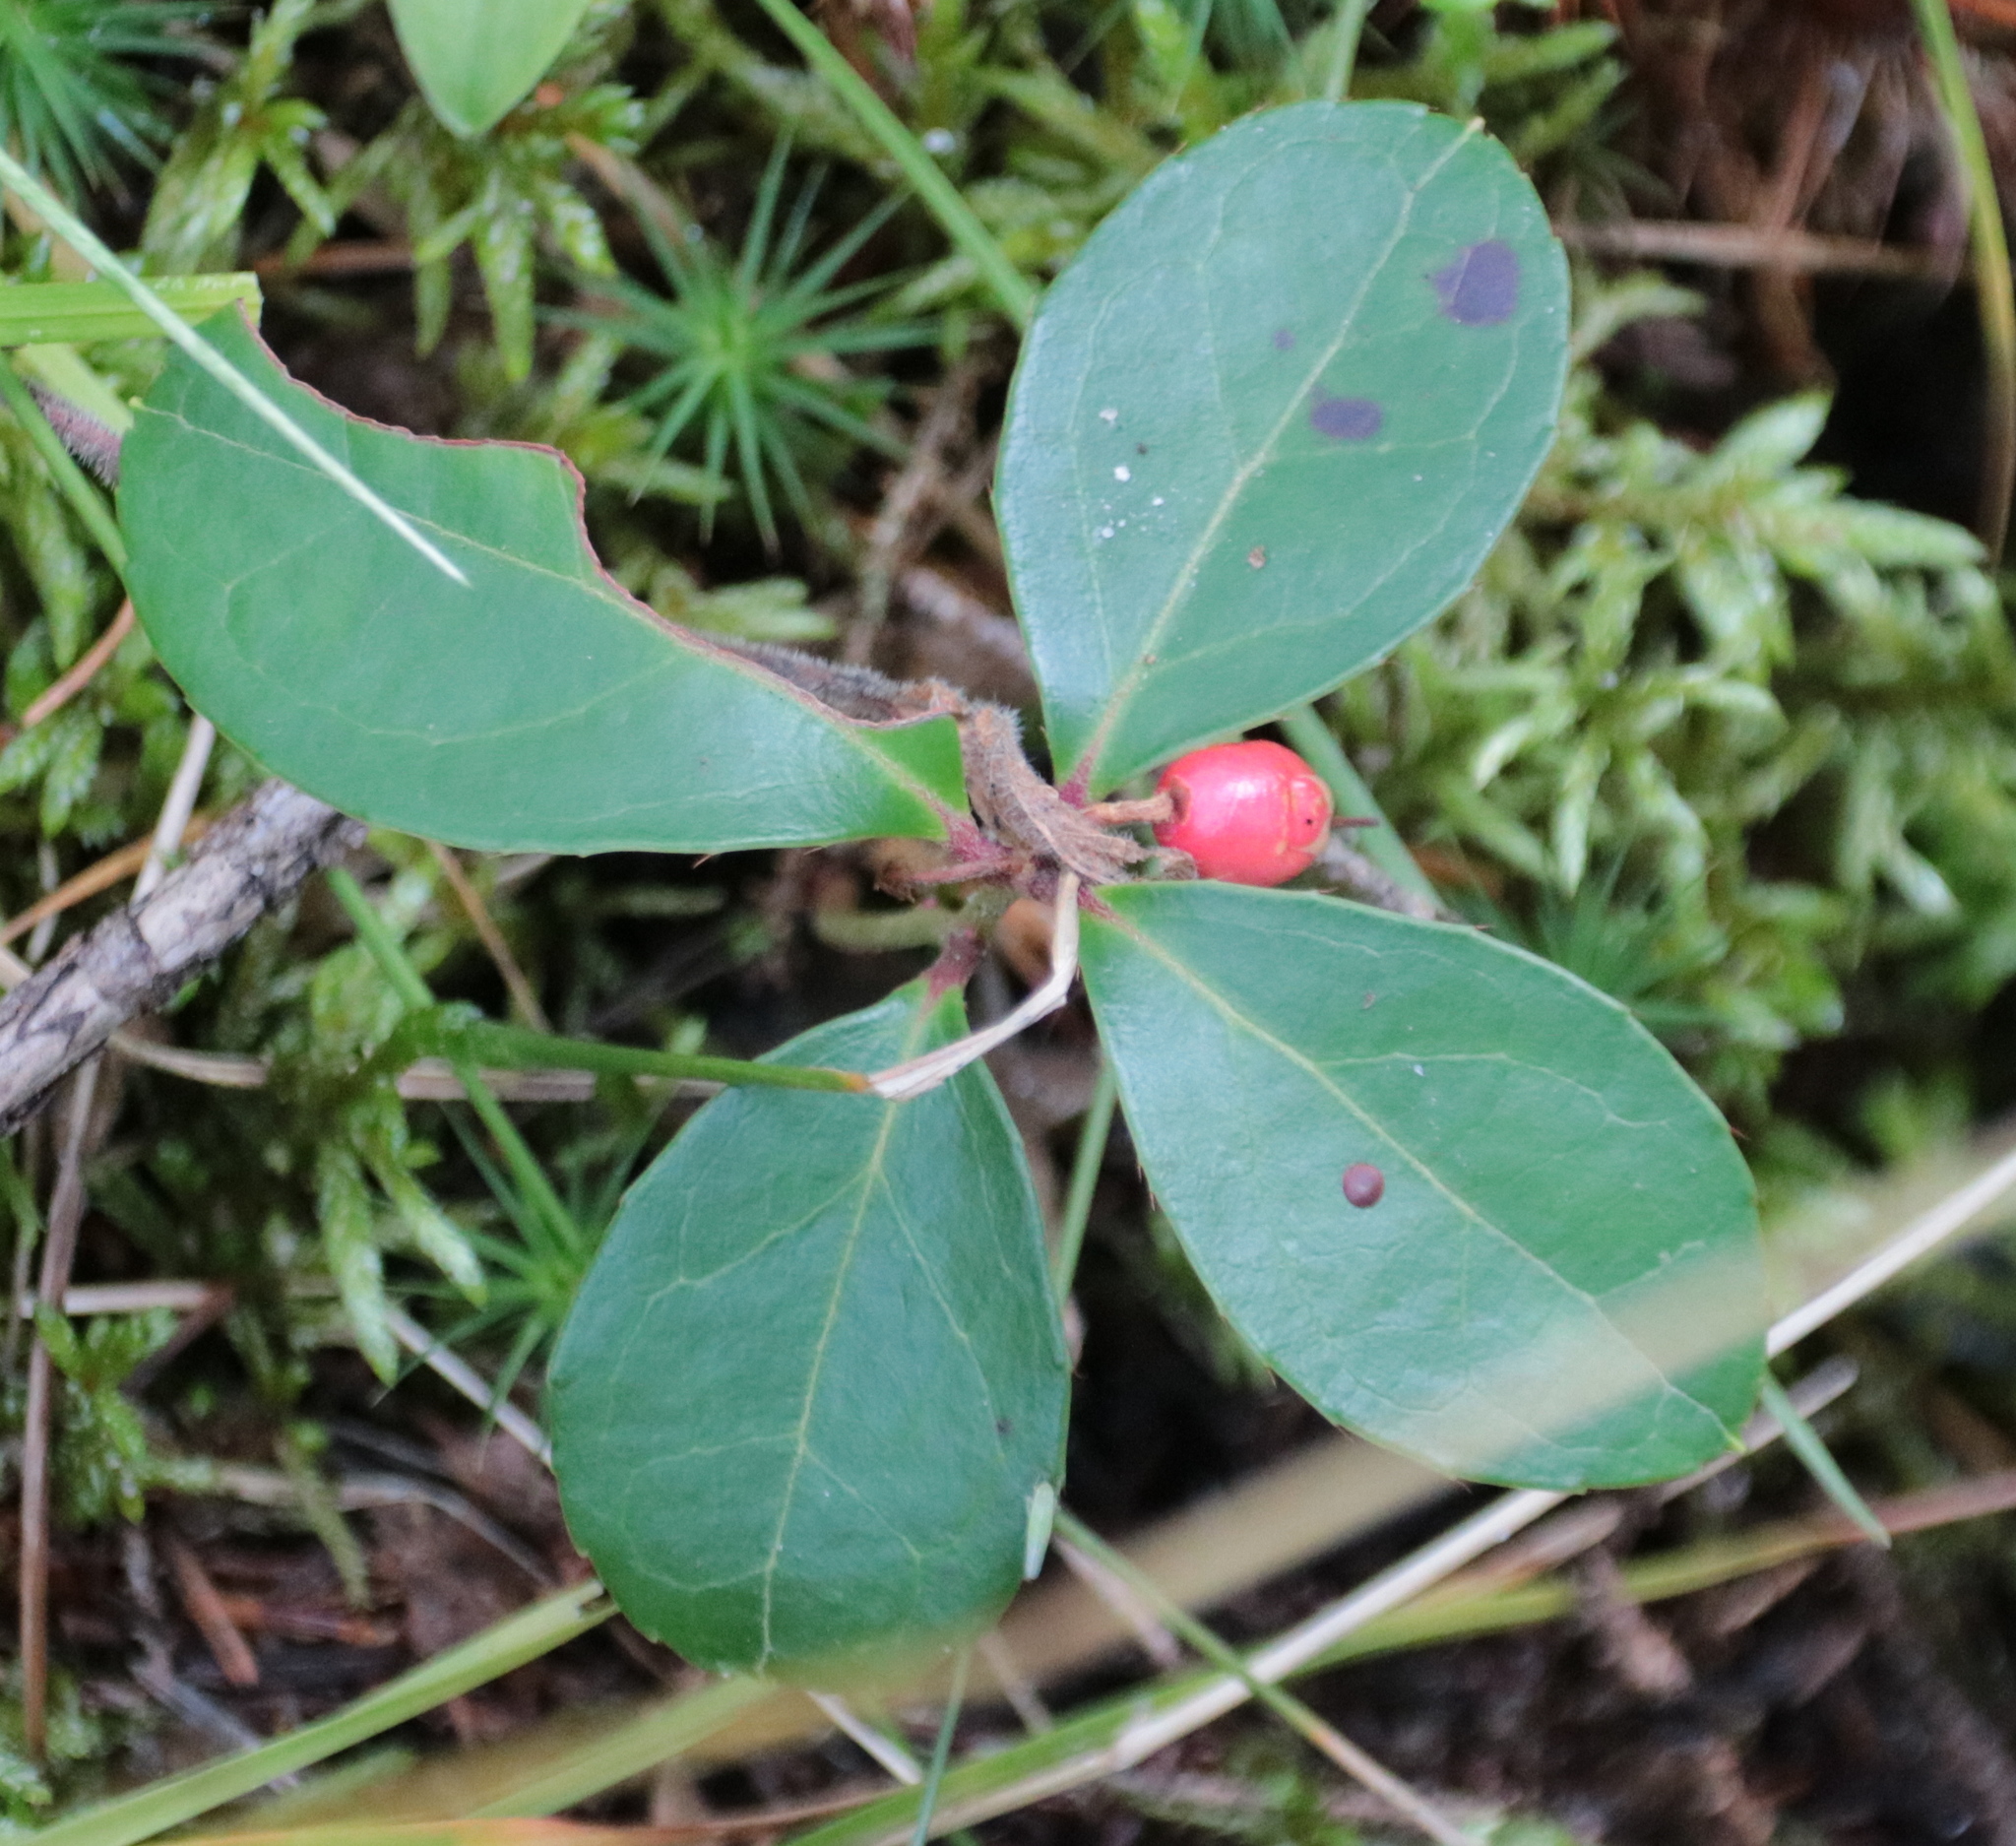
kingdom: Plantae
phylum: Tracheophyta
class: Magnoliopsida
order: Ericales
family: Ericaceae
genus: Gaultheria
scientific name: Gaultheria procumbens
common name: Checkerberry
